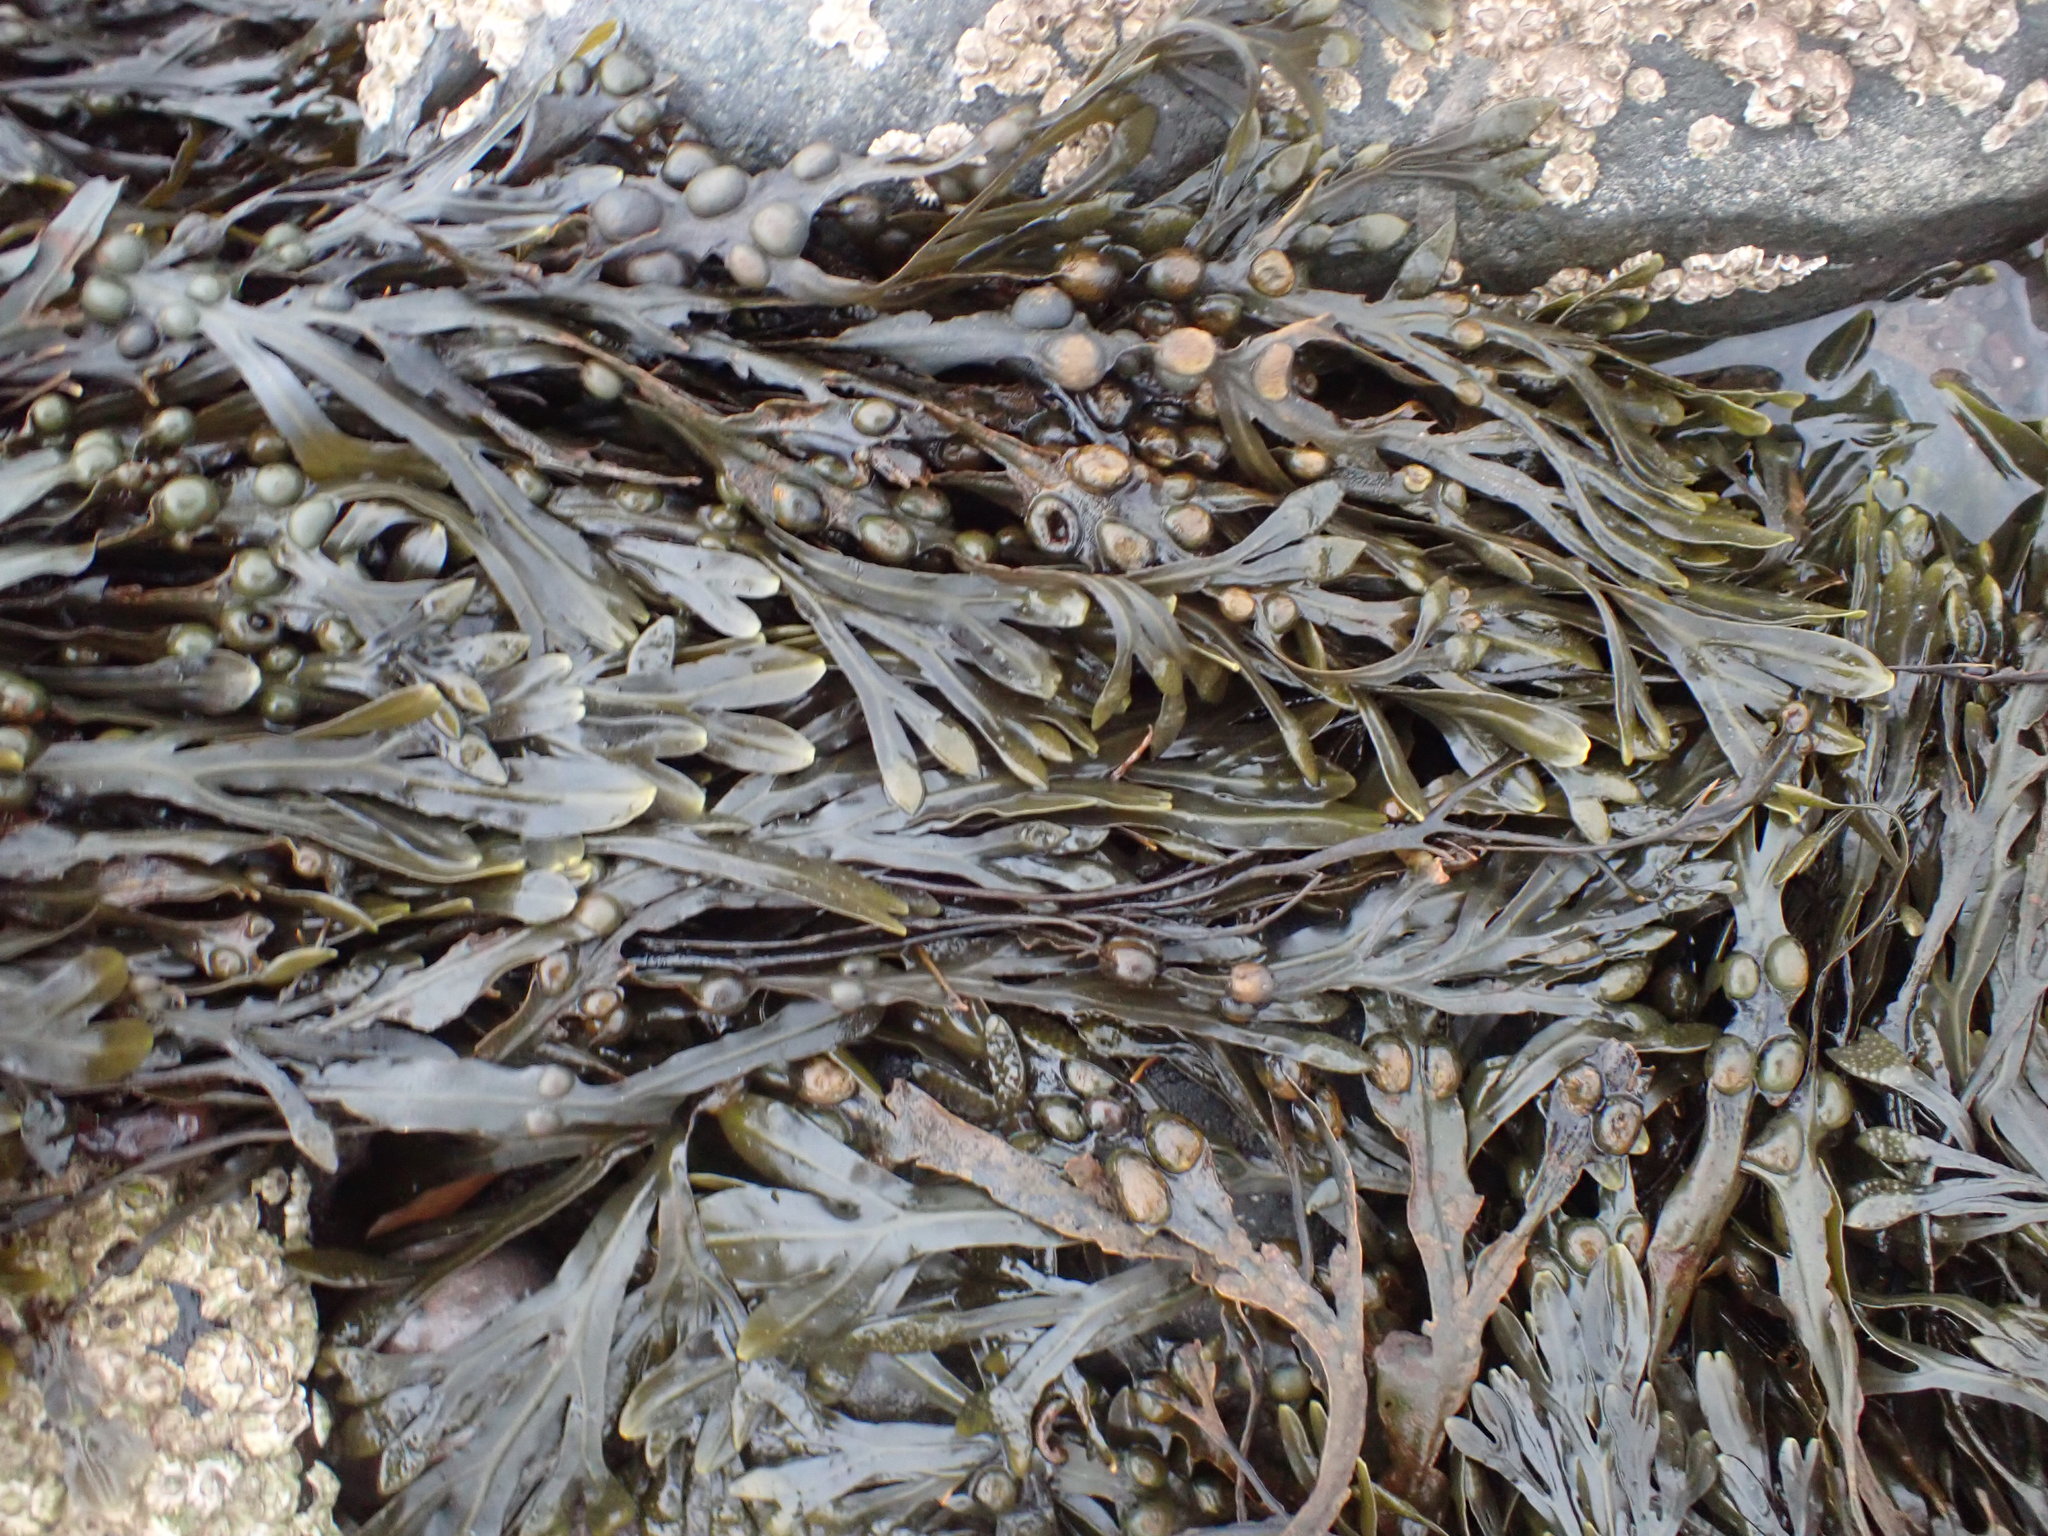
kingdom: Chromista
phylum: Ochrophyta
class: Phaeophyceae
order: Fucales
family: Fucaceae
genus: Fucus
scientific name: Fucus vesiculosus
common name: Bladder wrack
